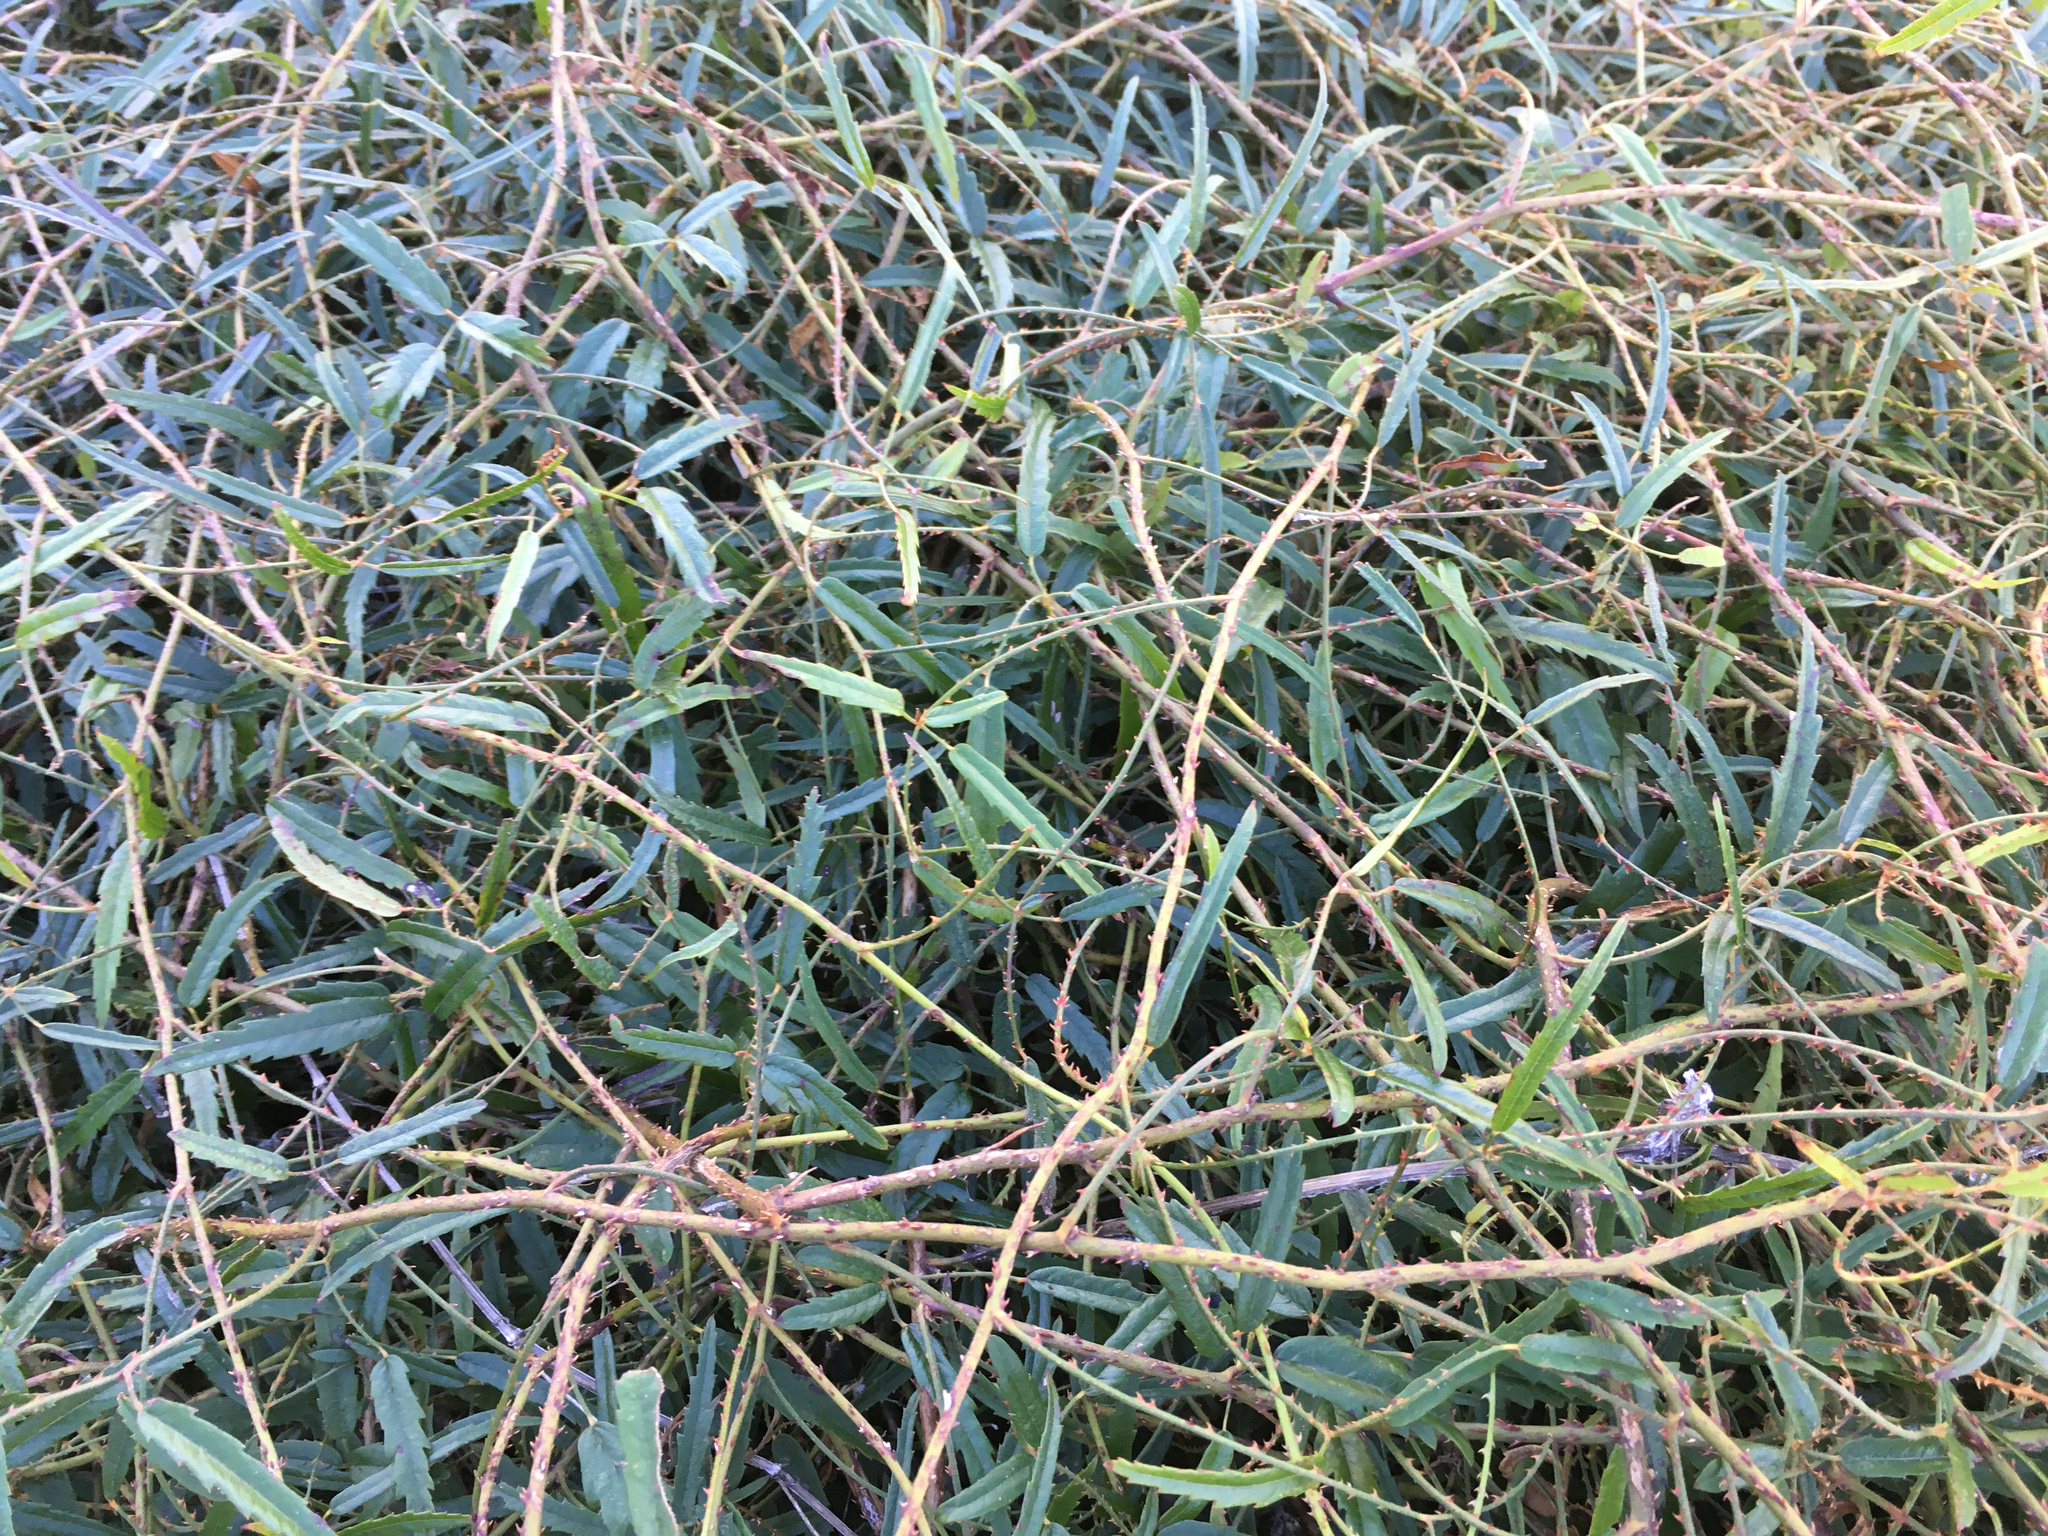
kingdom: Plantae
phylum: Tracheophyta
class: Magnoliopsida
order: Rosales
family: Rosaceae
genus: Rubus
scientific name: Rubus cissoides
